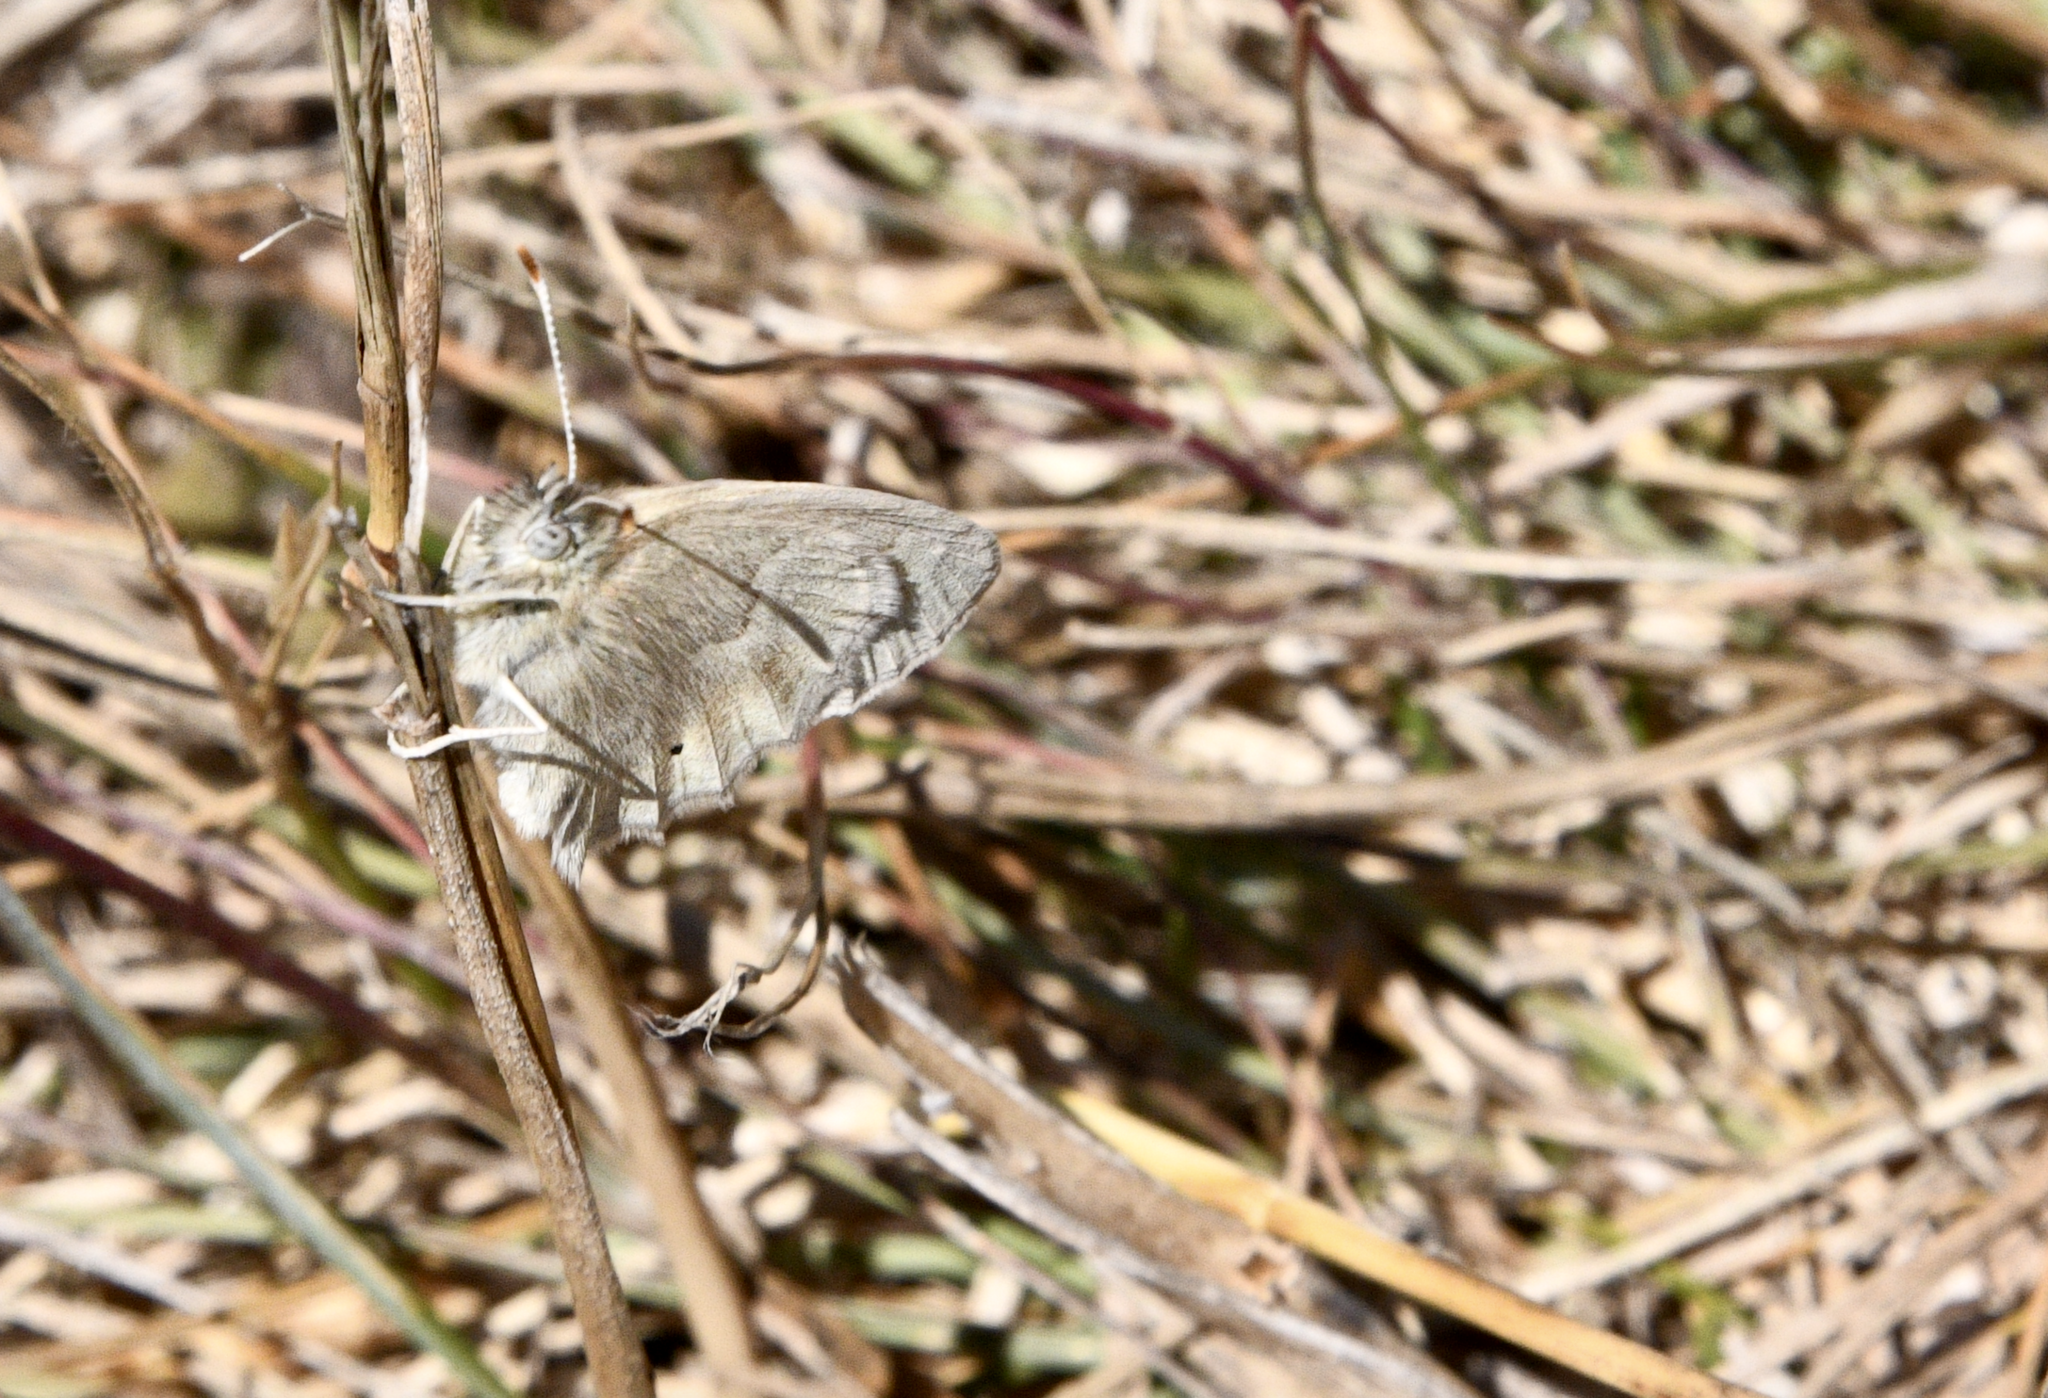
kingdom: Animalia
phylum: Arthropoda
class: Insecta
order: Lepidoptera
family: Nymphalidae
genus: Coenonympha
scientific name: Coenonympha california
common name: Common ringlet
